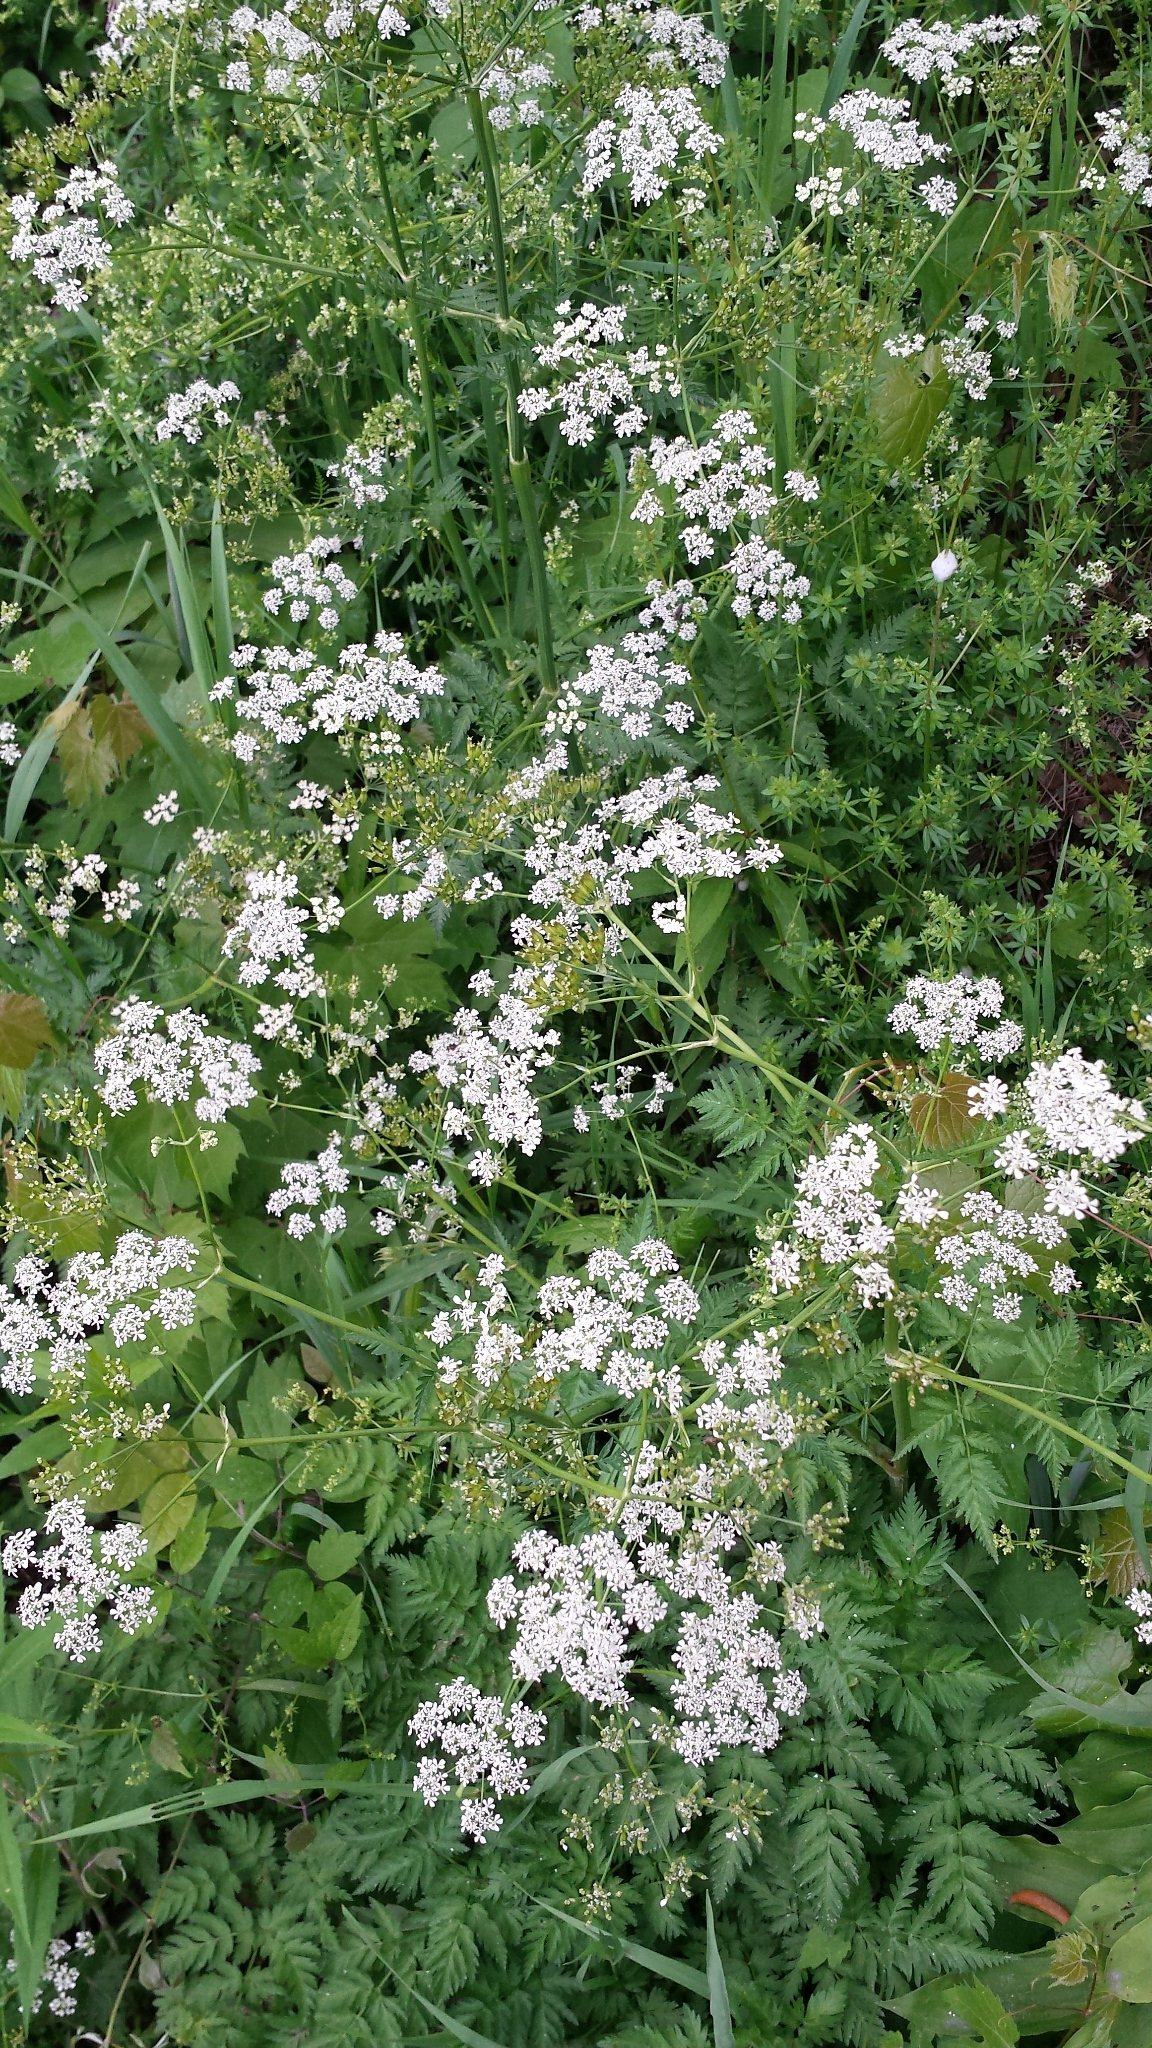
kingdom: Plantae
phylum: Tracheophyta
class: Magnoliopsida
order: Apiales
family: Apiaceae
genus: Anthriscus
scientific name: Anthriscus sylvestris
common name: Cow parsley
